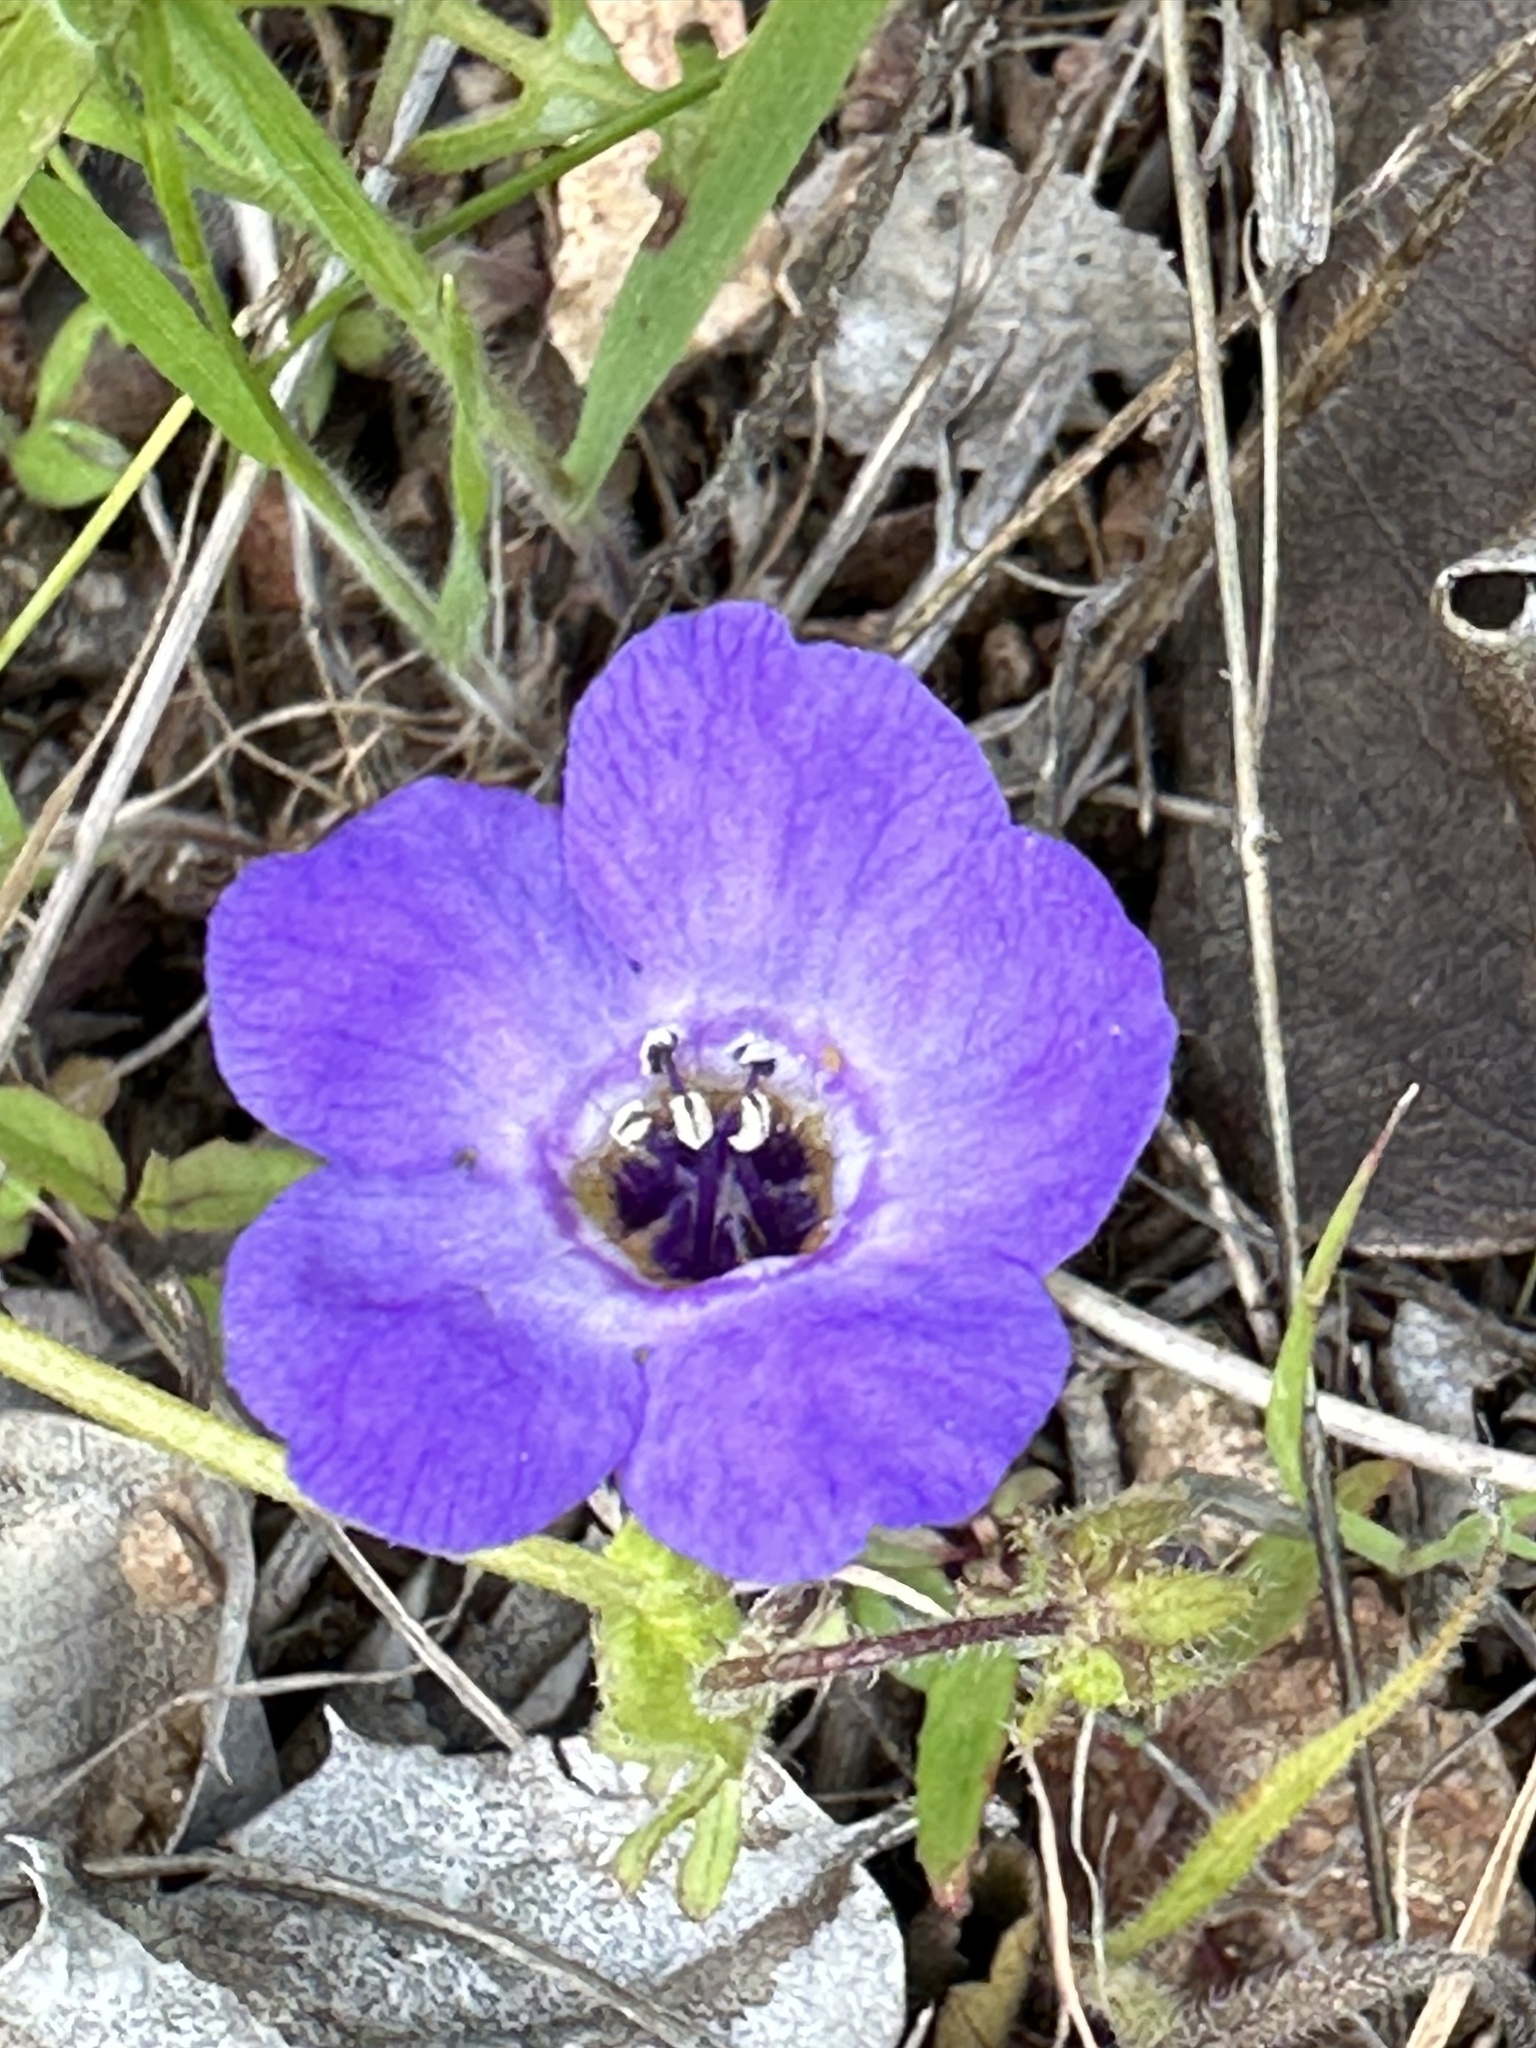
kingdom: Plantae
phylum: Tracheophyta
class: Magnoliopsida
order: Boraginales
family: Hydrophyllaceae
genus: Pholistoma
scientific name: Pholistoma auritum
